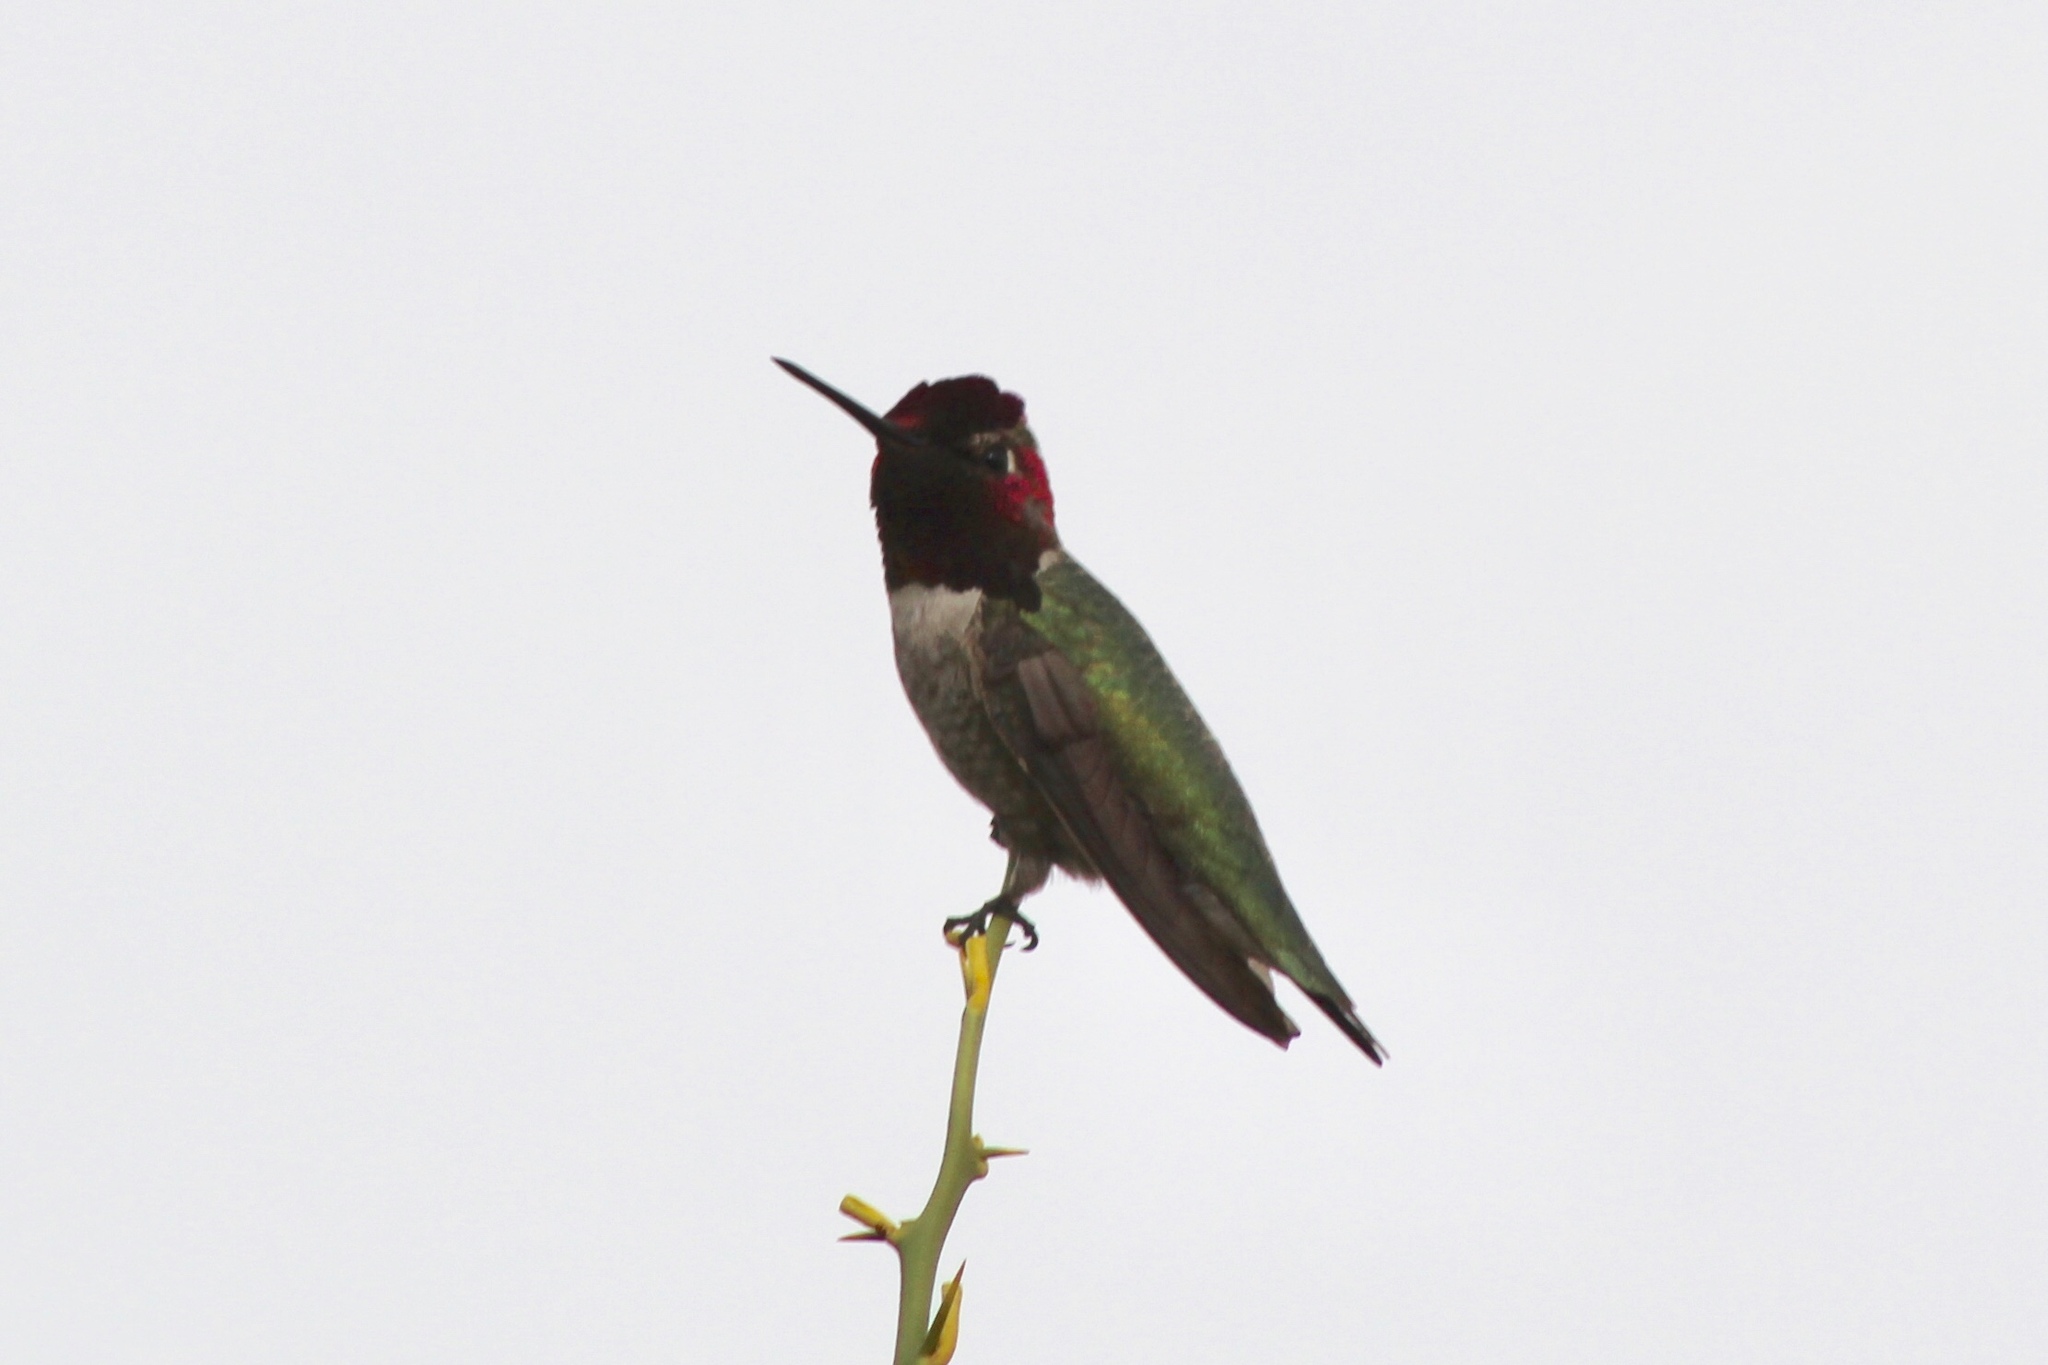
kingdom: Animalia
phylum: Chordata
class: Aves
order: Apodiformes
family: Trochilidae
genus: Calypte
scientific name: Calypte anna
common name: Anna's hummingbird
